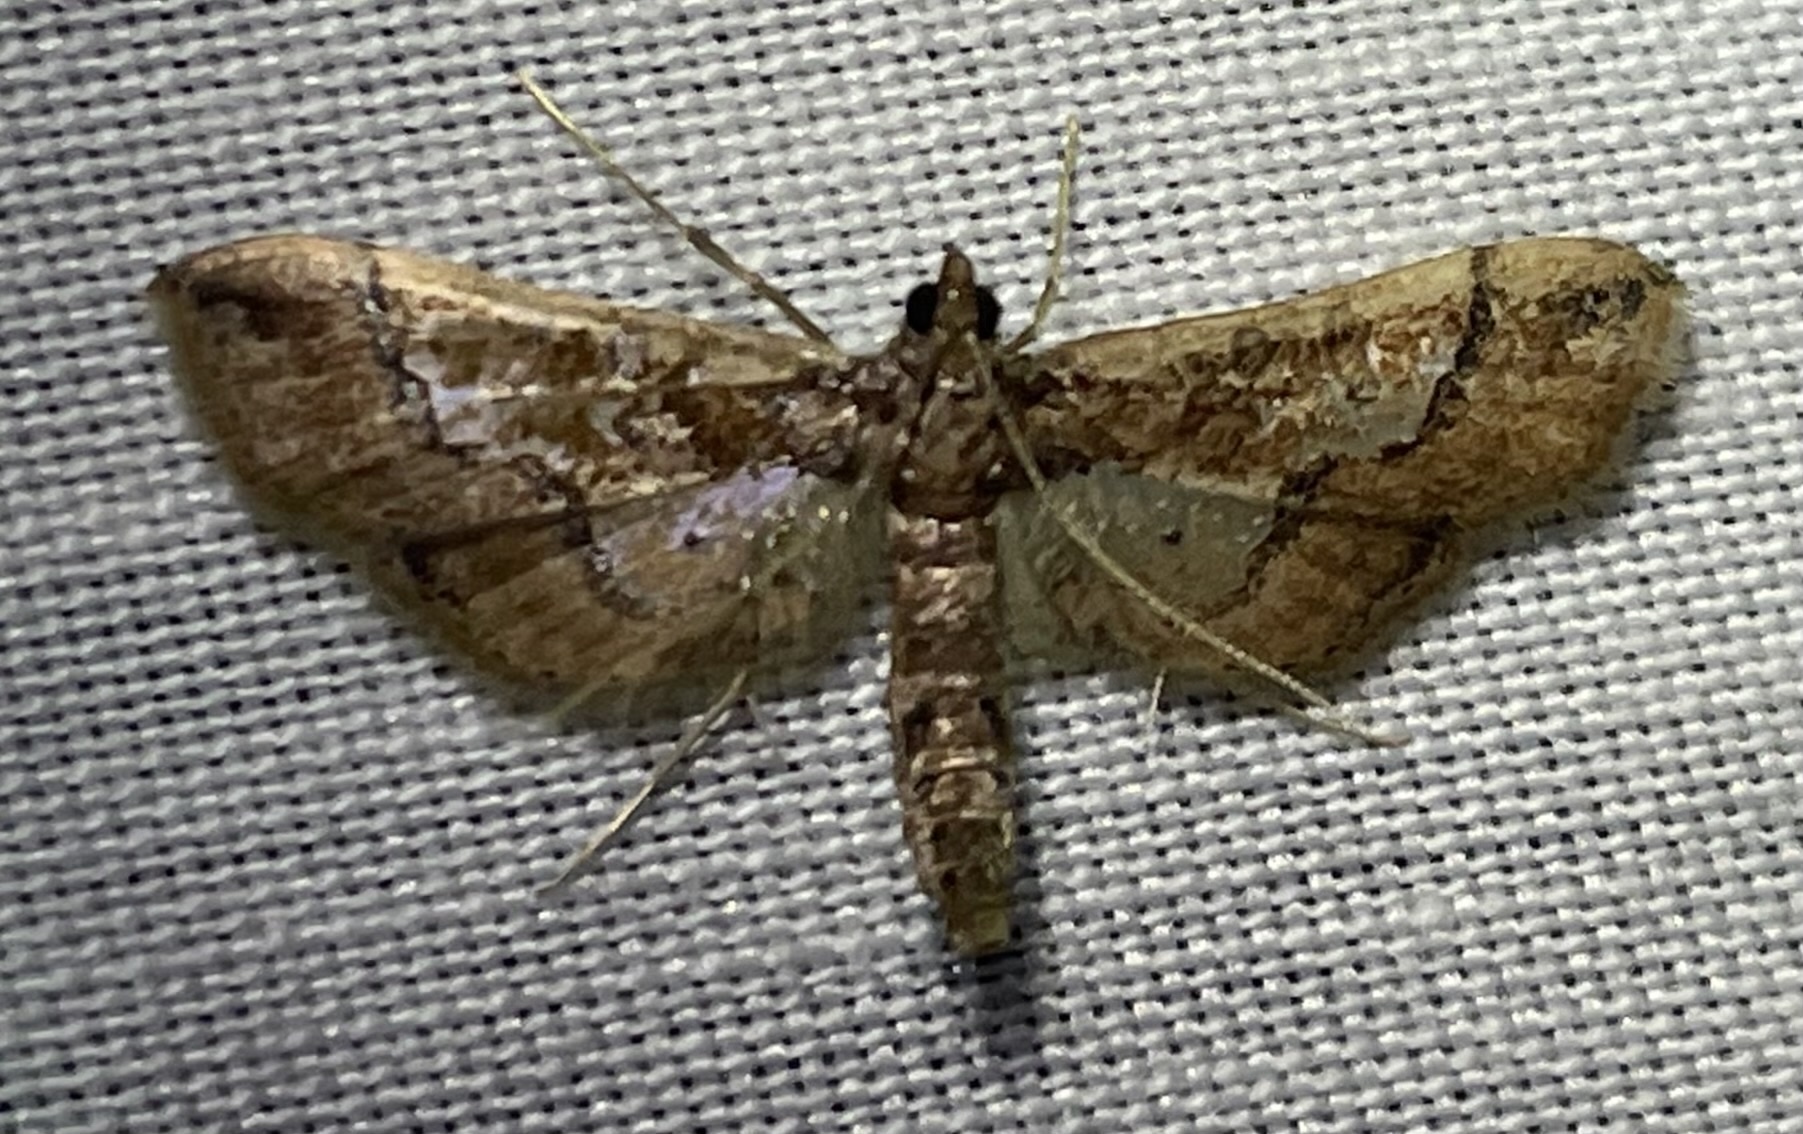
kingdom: Animalia
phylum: Arthropoda
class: Insecta
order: Lepidoptera
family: Crambidae
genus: Hydriris
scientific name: Hydriris ornatalis
